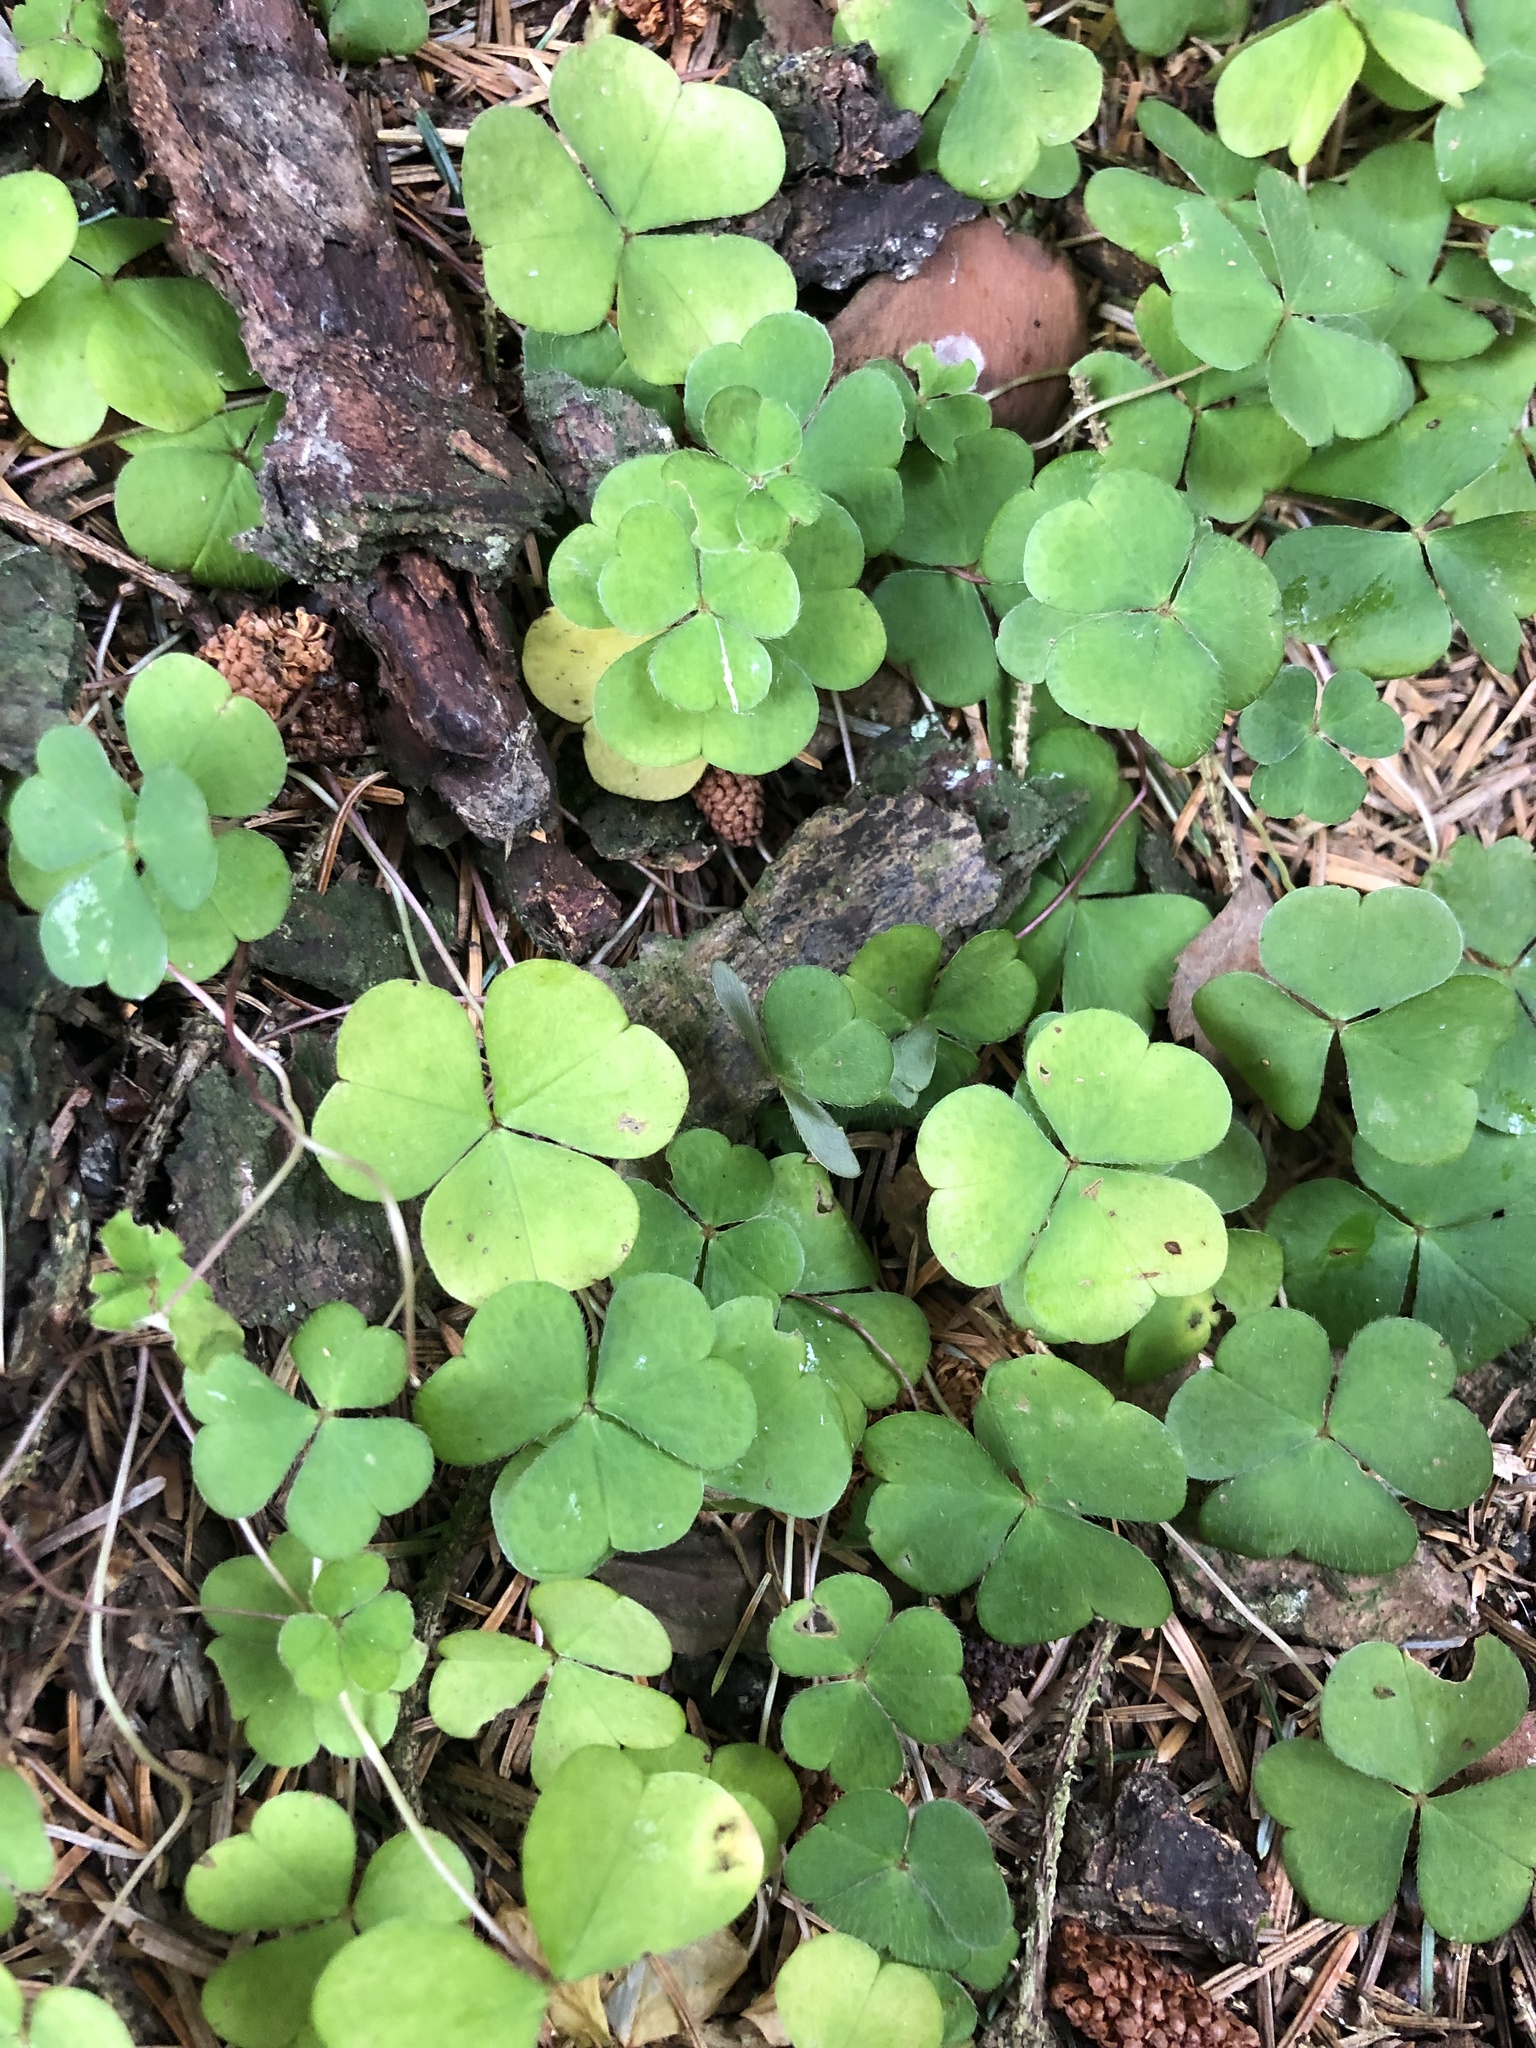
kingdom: Plantae
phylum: Tracheophyta
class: Magnoliopsida
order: Oxalidales
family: Oxalidaceae
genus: Oxalis
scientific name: Oxalis acetosella
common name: Wood-sorrel
